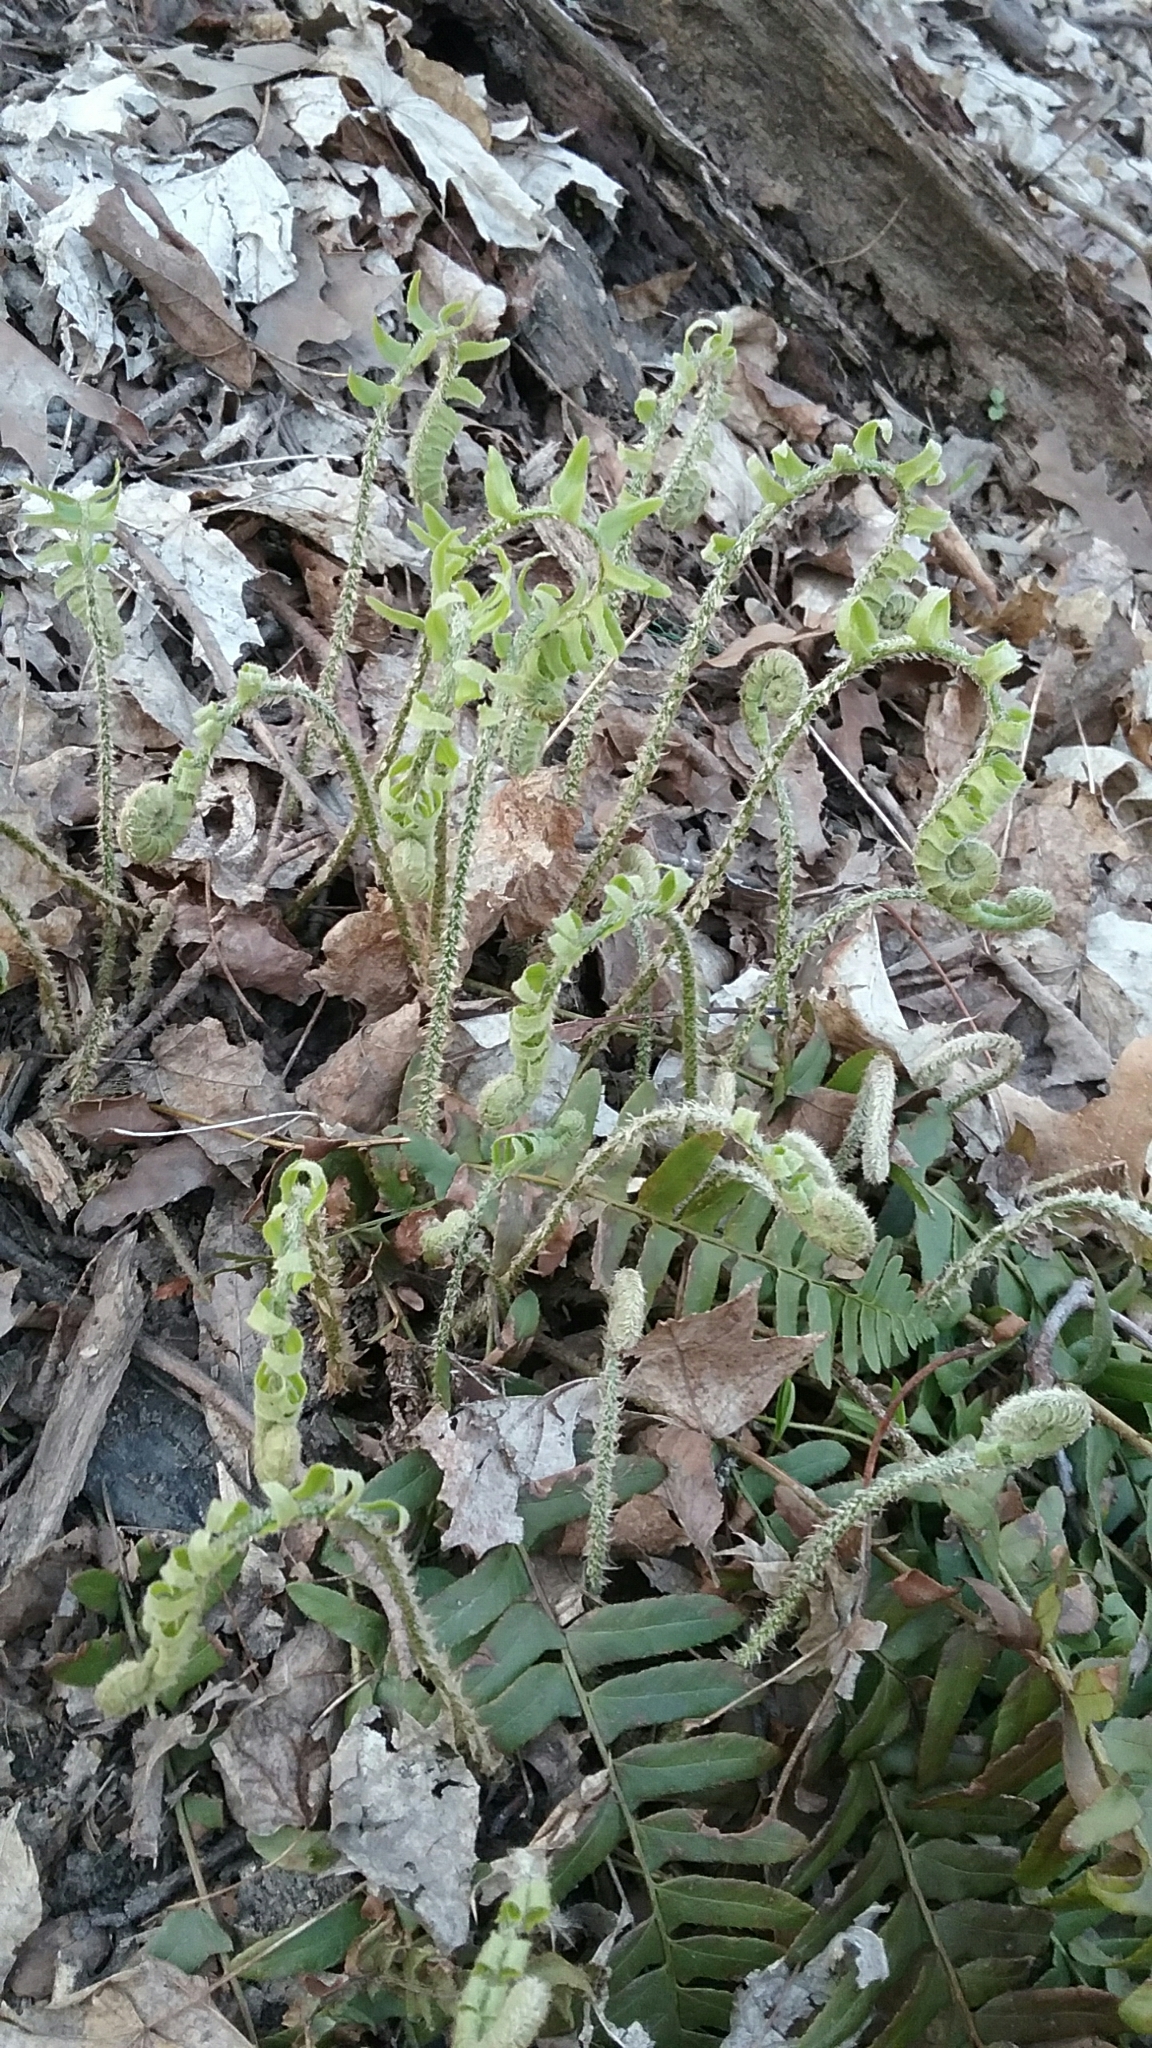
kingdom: Plantae
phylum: Tracheophyta
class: Polypodiopsida
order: Polypodiales
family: Dryopteridaceae
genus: Polystichum
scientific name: Polystichum acrostichoides
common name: Christmas fern
